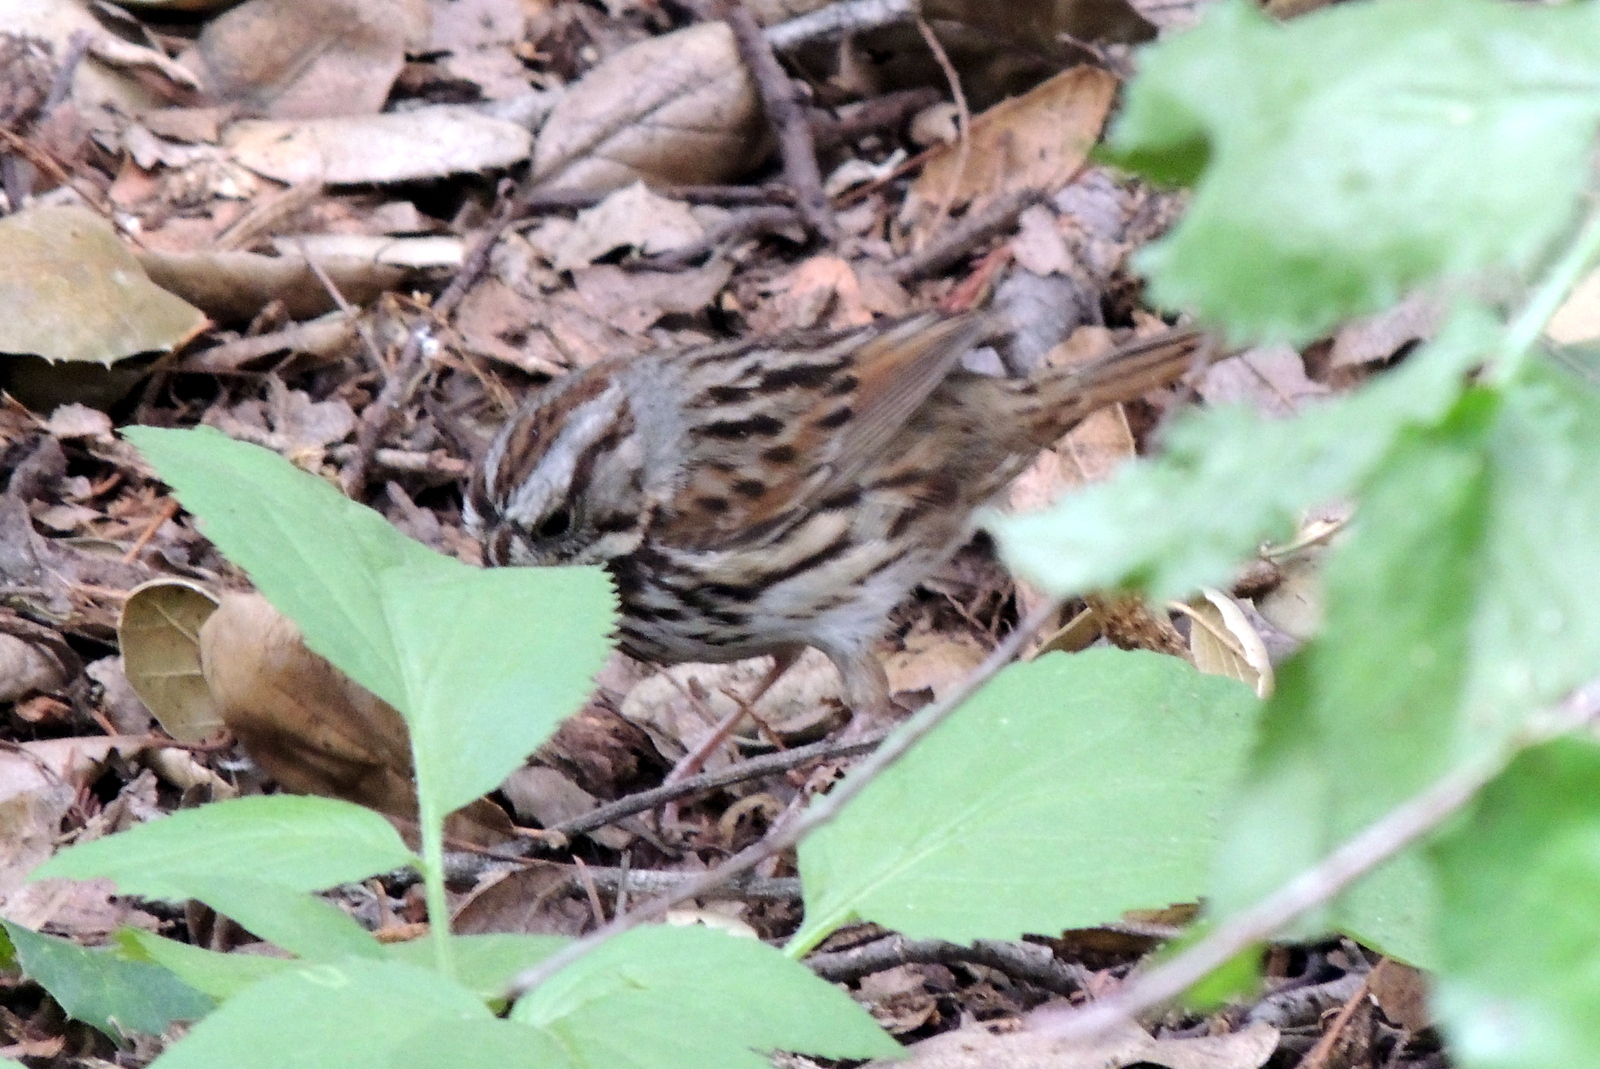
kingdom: Animalia
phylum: Chordata
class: Aves
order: Passeriformes
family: Passerellidae
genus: Melospiza
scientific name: Melospiza melodia
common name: Song sparrow
